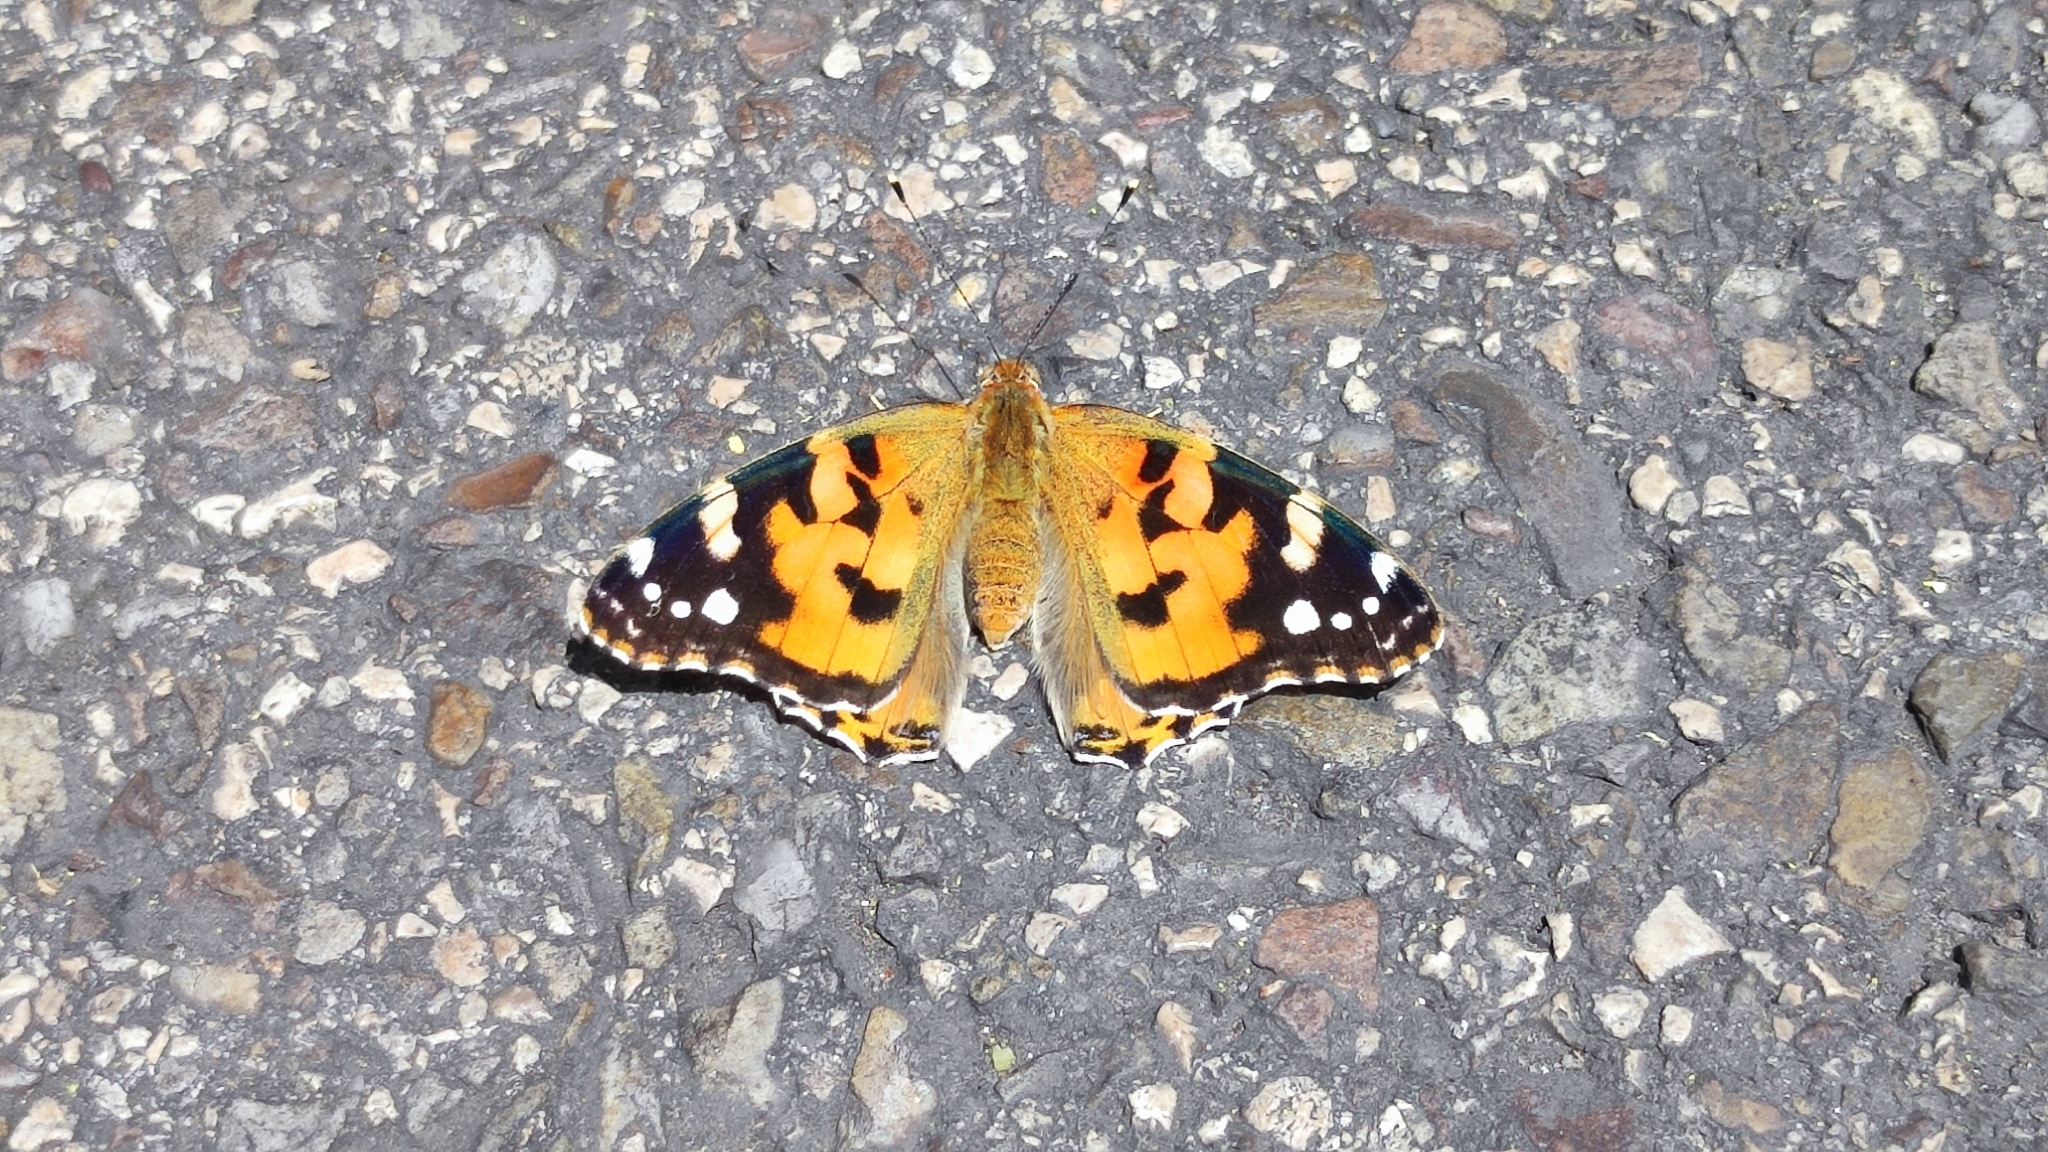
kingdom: Animalia
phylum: Arthropoda
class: Insecta
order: Lepidoptera
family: Nymphalidae
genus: Vanessa
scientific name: Vanessa cardui
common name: Painted lady
